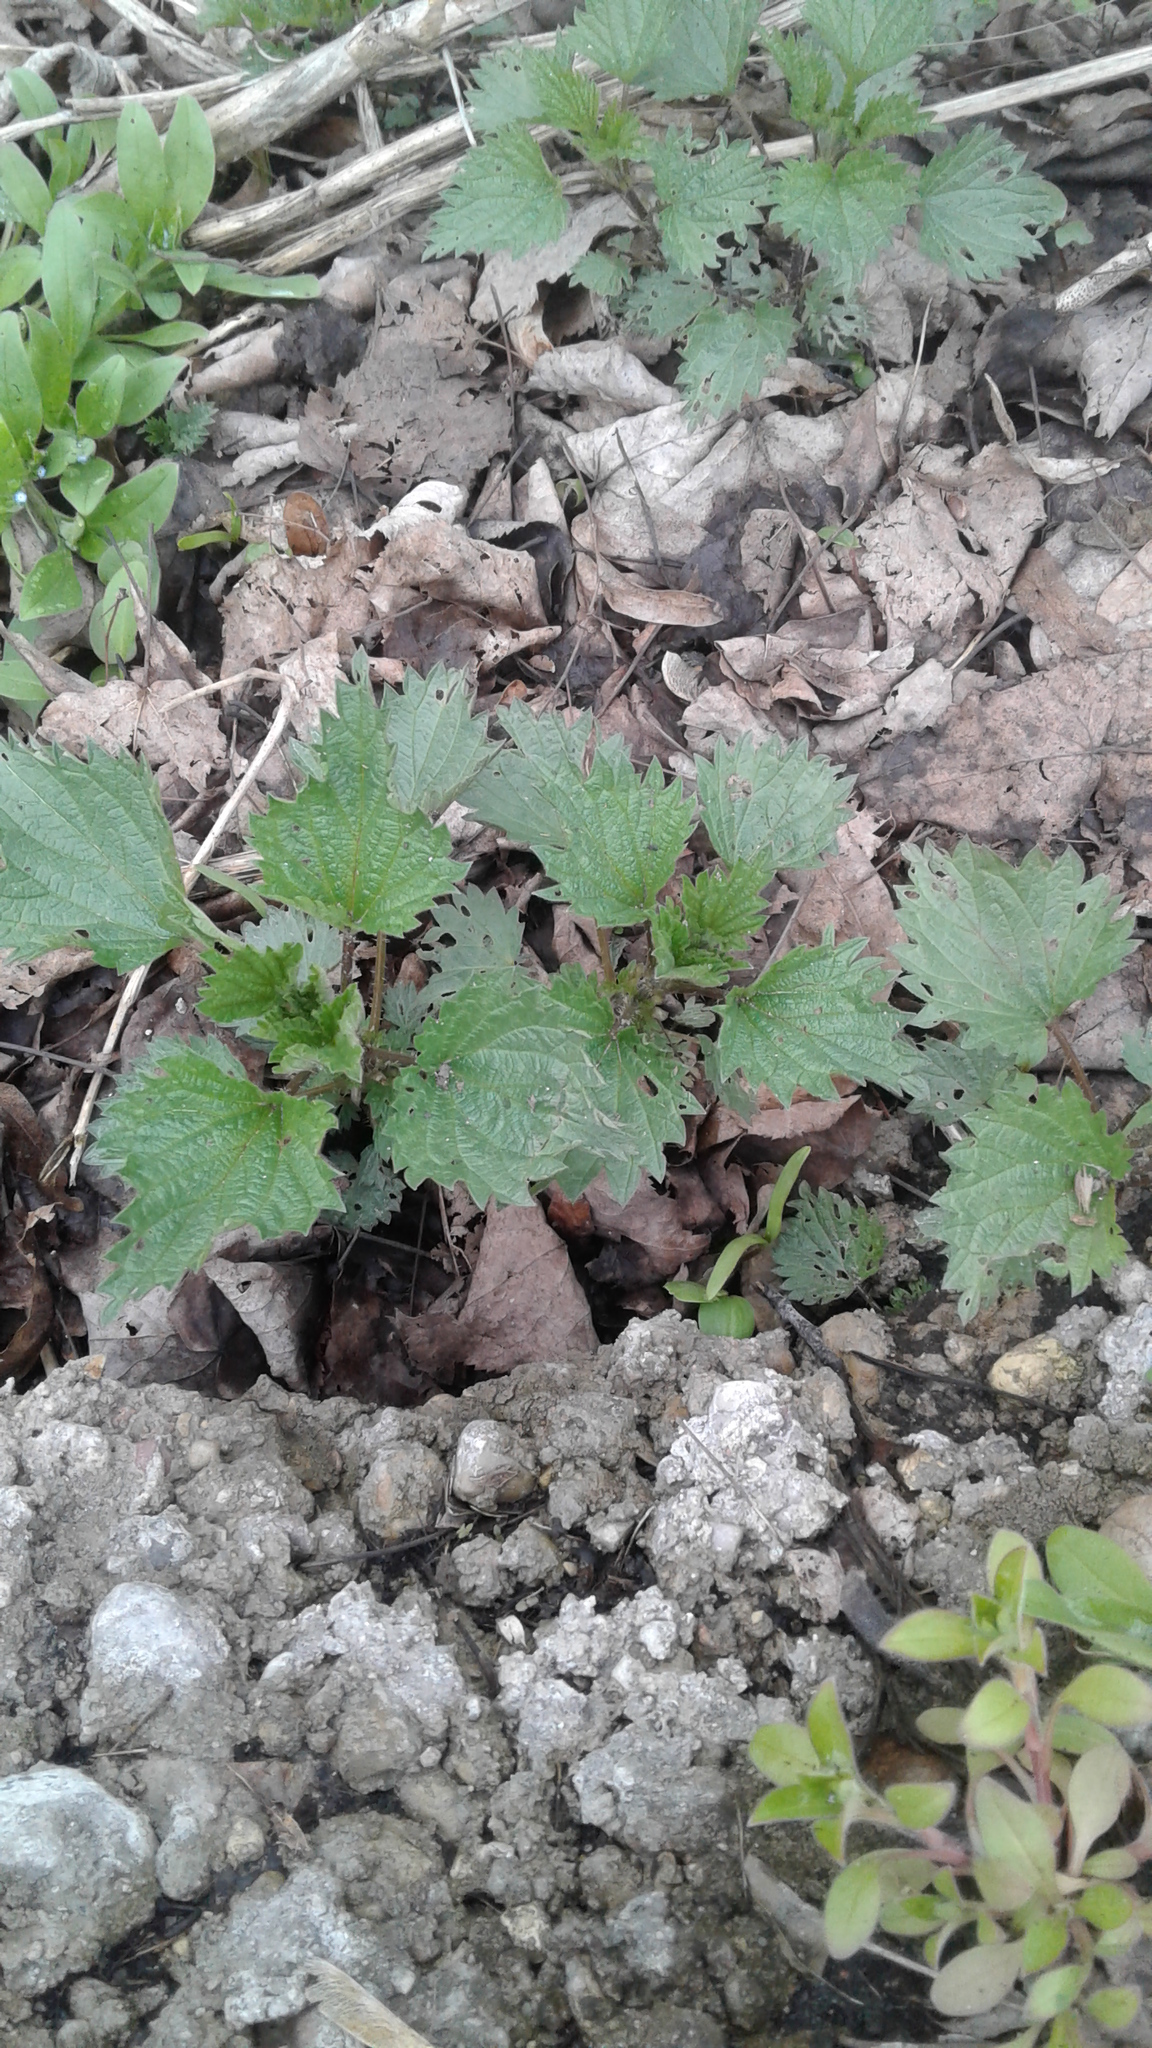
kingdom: Plantae
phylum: Tracheophyta
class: Magnoliopsida
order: Rosales
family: Urticaceae
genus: Urtica
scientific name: Urtica dioica
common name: Common nettle
